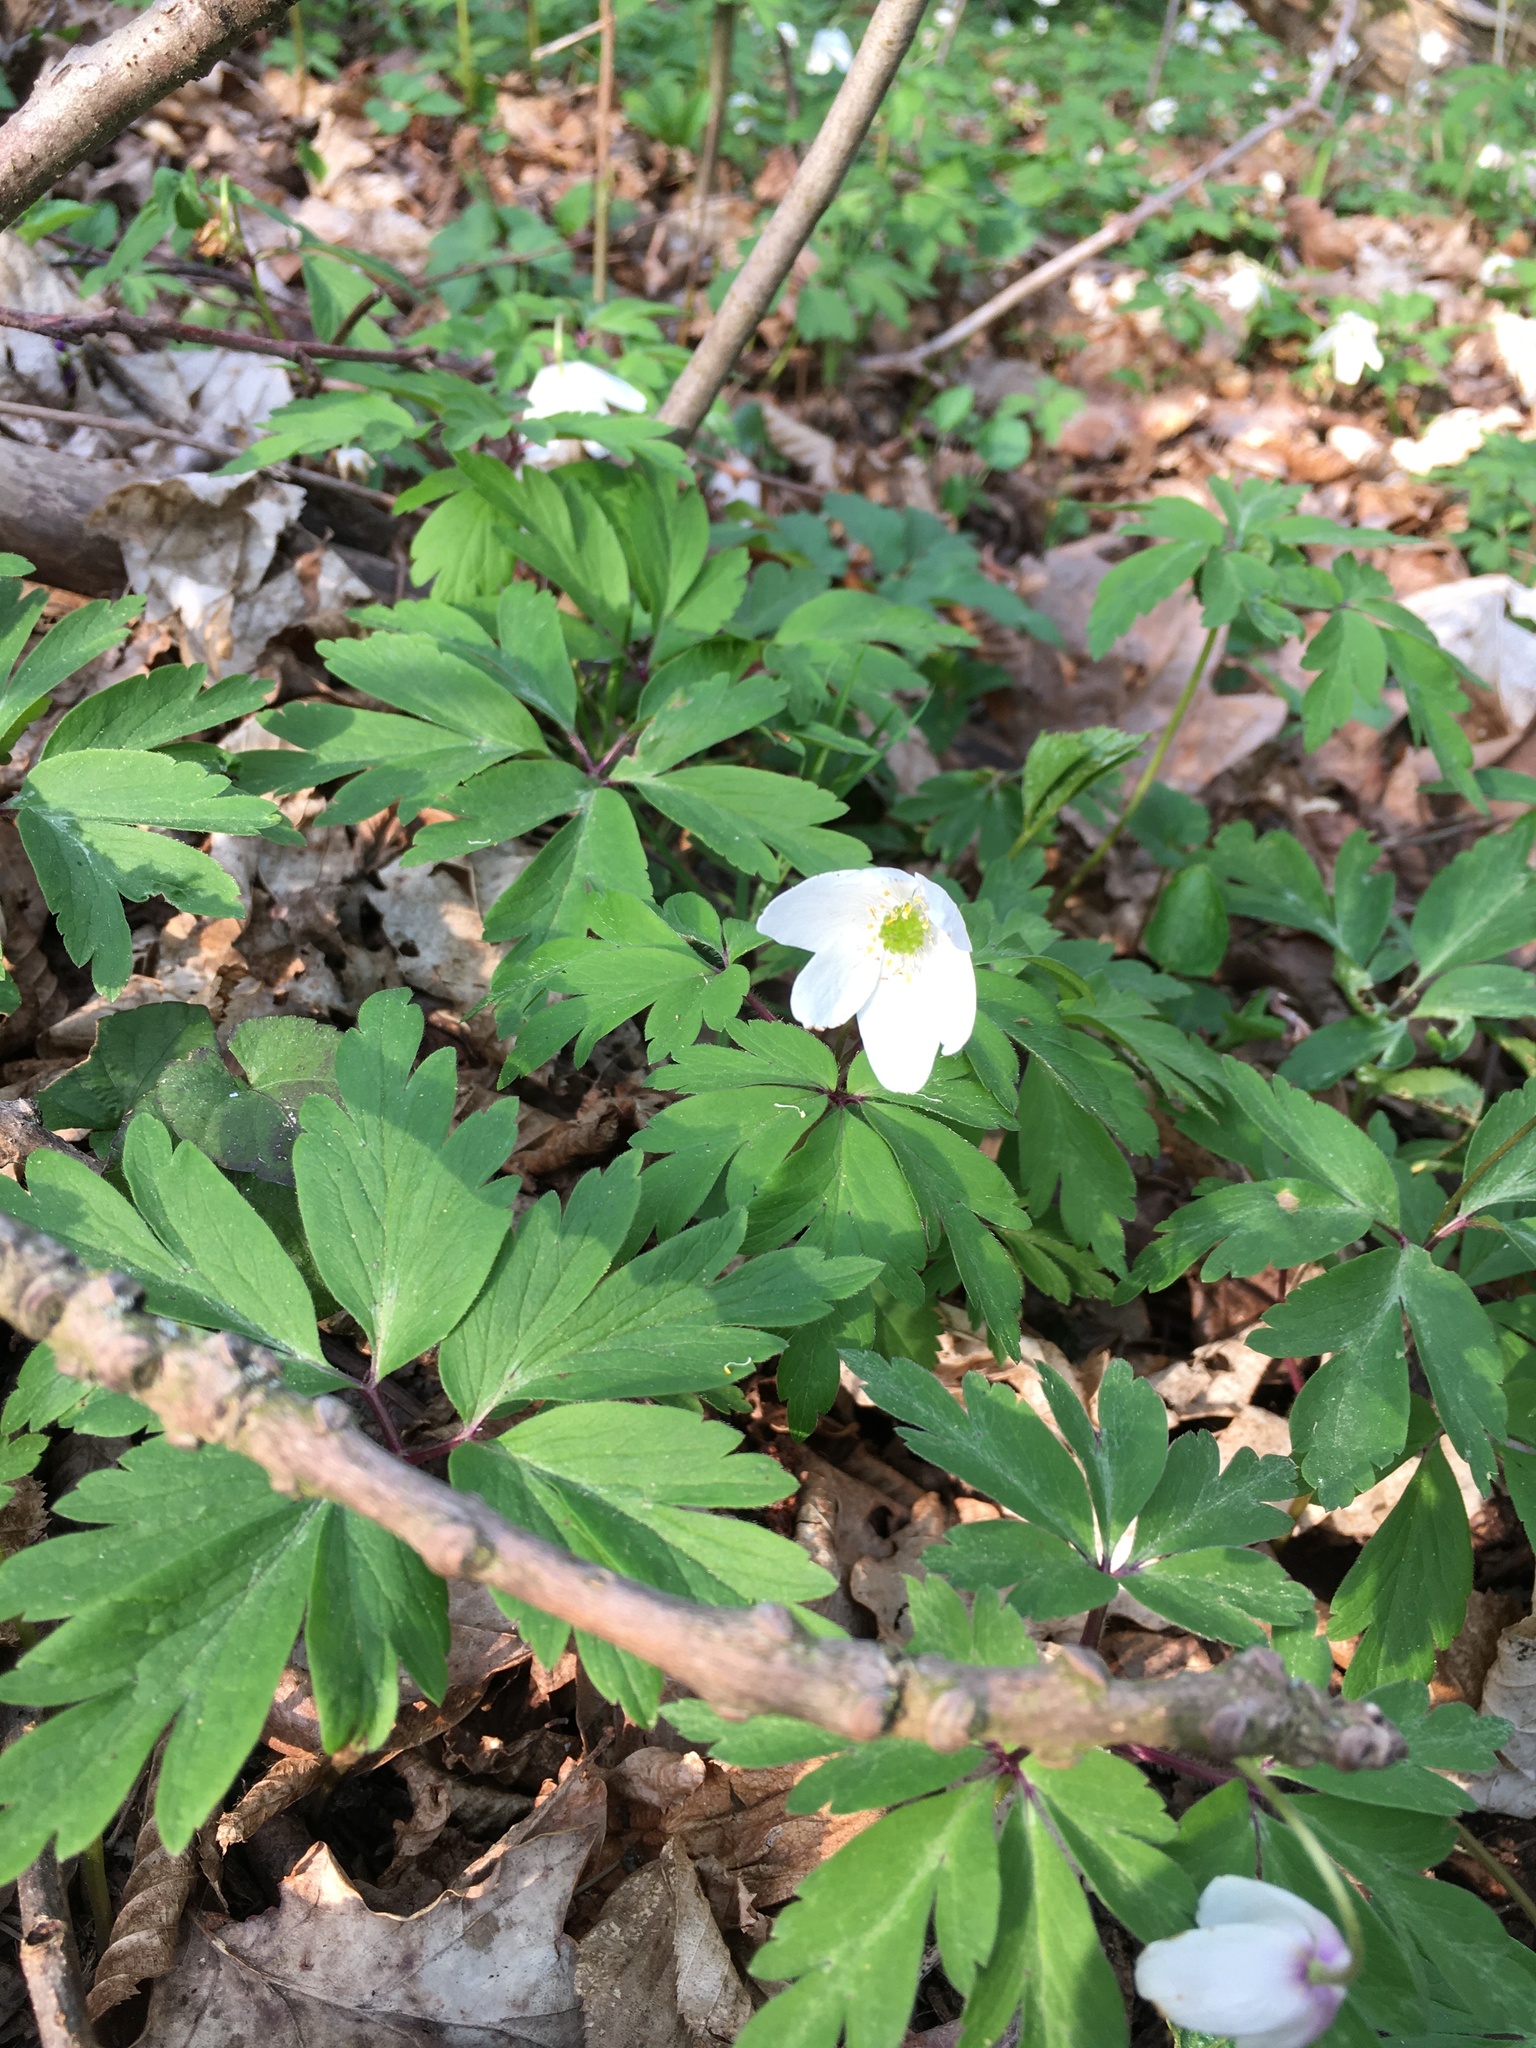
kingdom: Plantae
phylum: Tracheophyta
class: Magnoliopsida
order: Ranunculales
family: Ranunculaceae
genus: Anemone
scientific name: Anemone nemorosa
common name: Wood anemone
